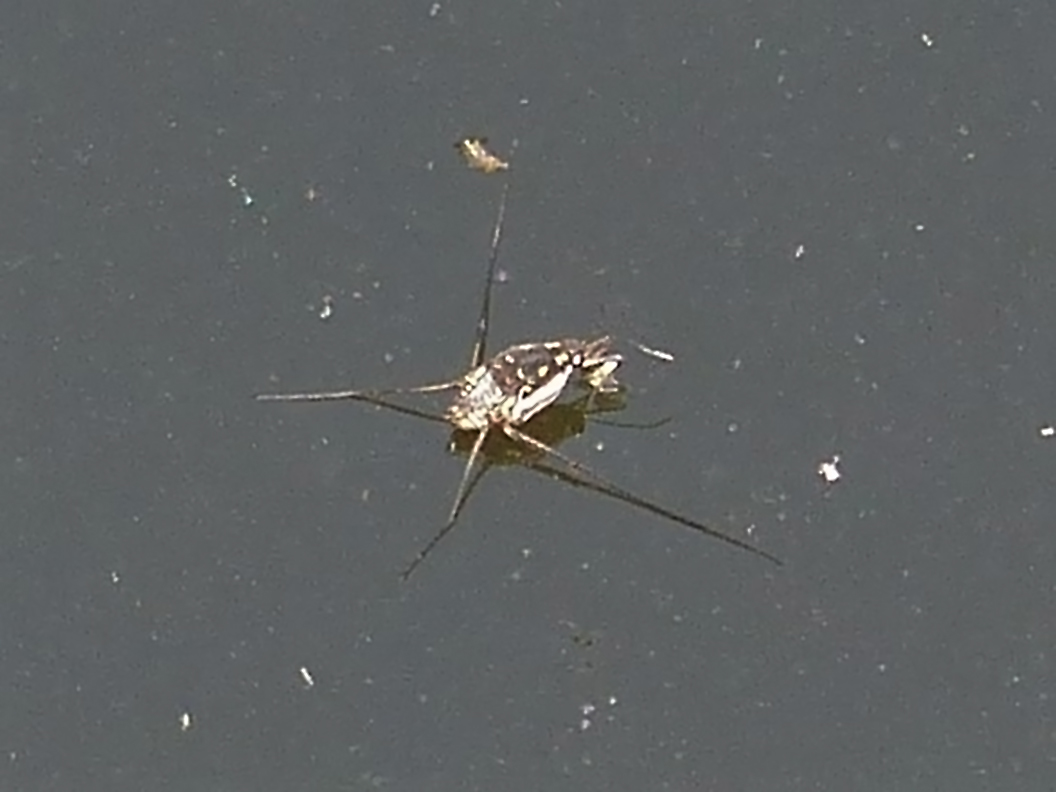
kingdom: Animalia
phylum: Arthropoda
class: Insecta
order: Hemiptera
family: Gerridae
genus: Trepobates
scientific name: Trepobates subnitidus
